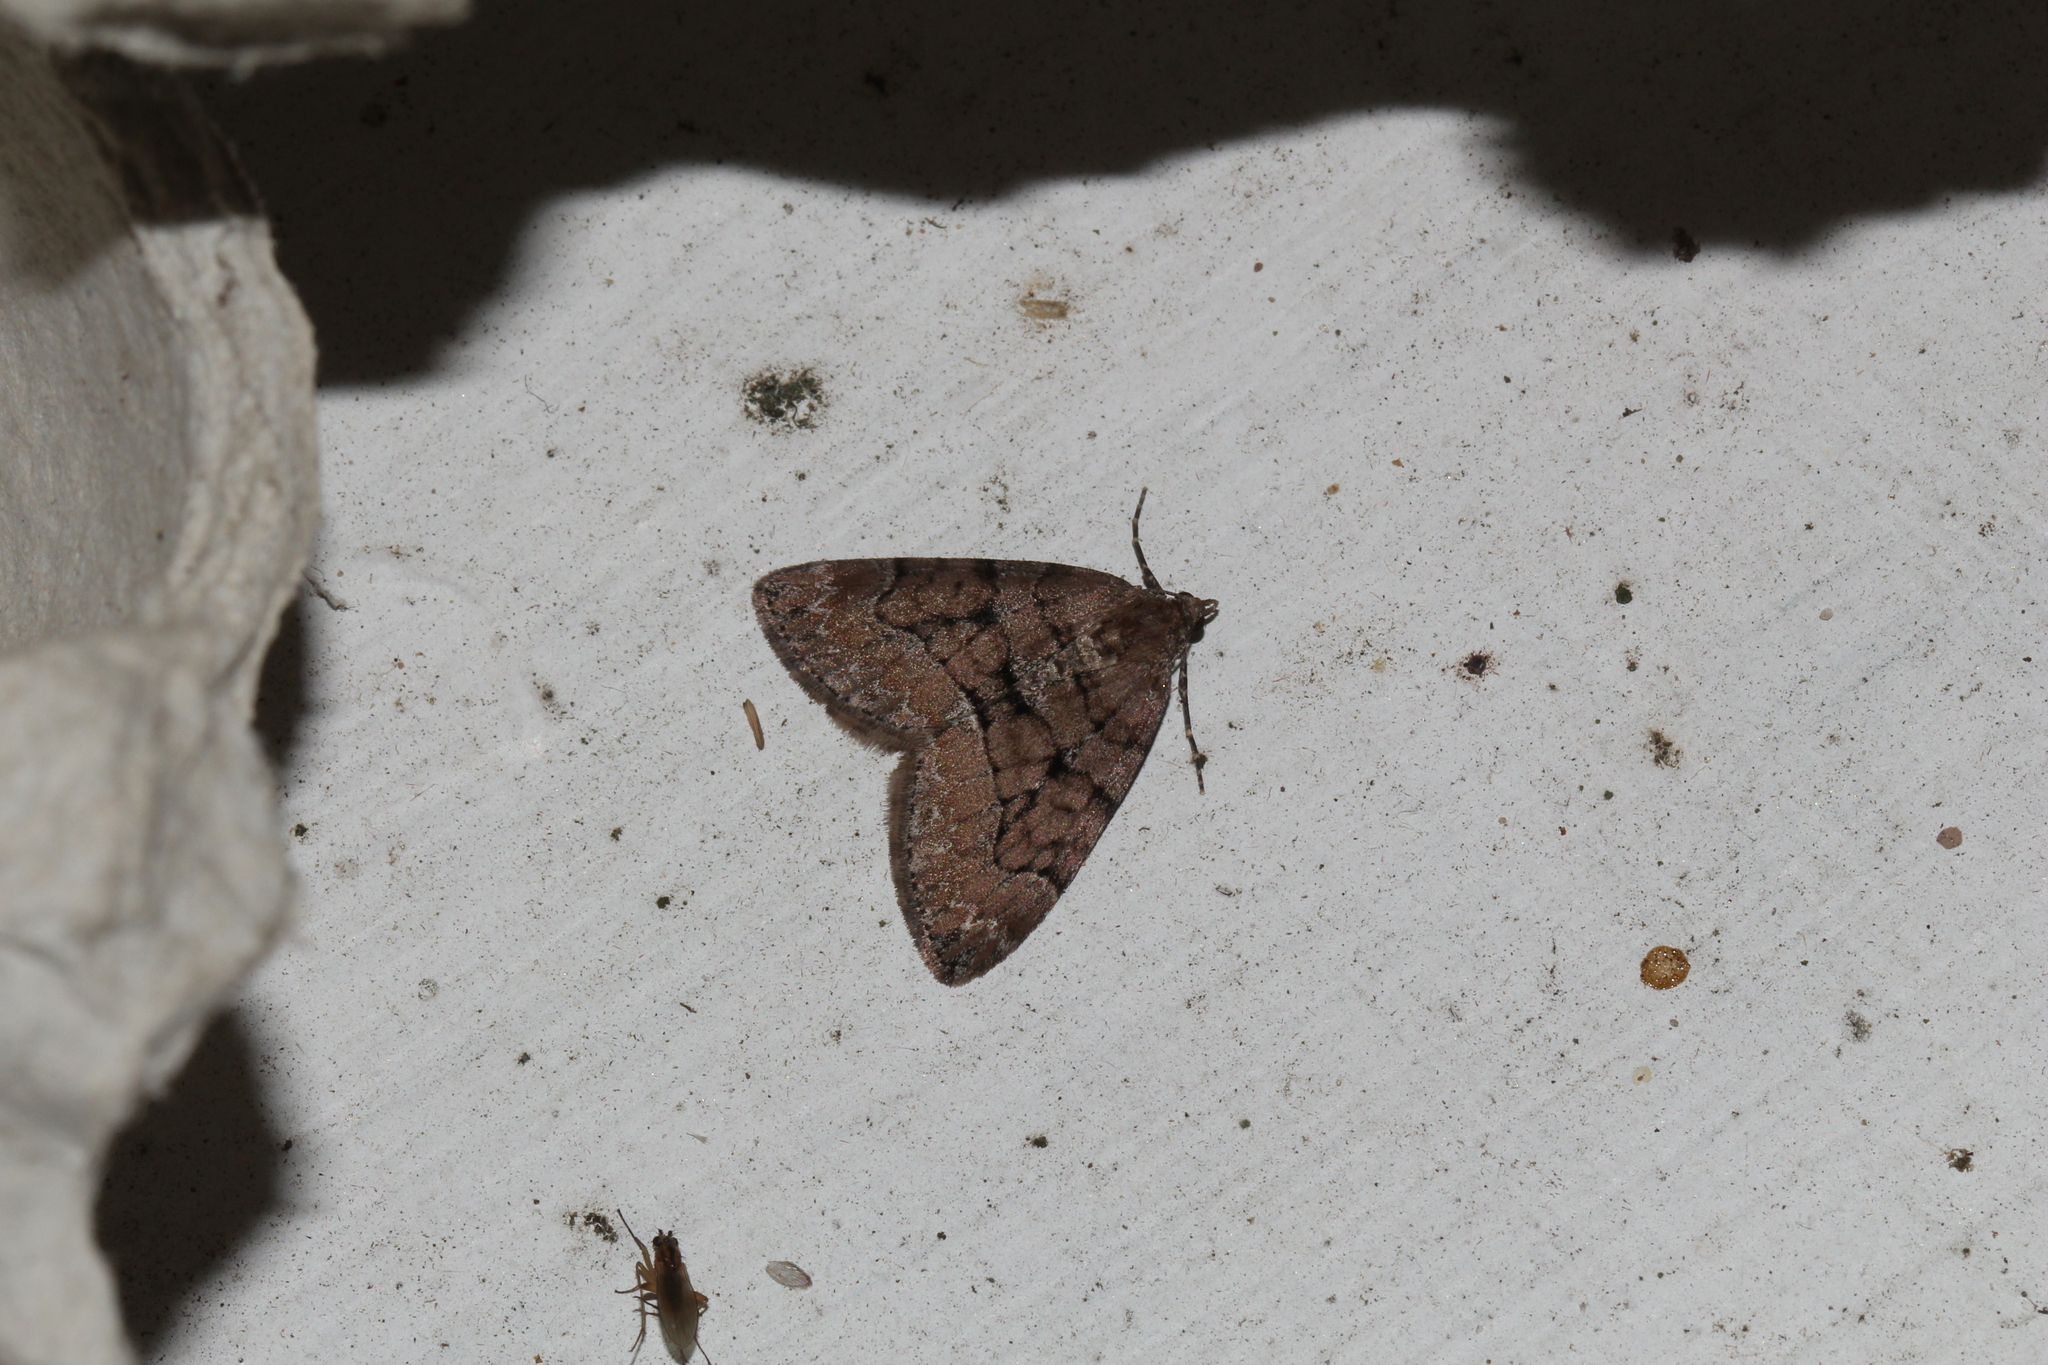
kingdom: Animalia
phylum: Arthropoda
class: Insecta
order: Lepidoptera
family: Geometridae
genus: Thera
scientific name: Thera cognata
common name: Chestnut-coloured carpet
